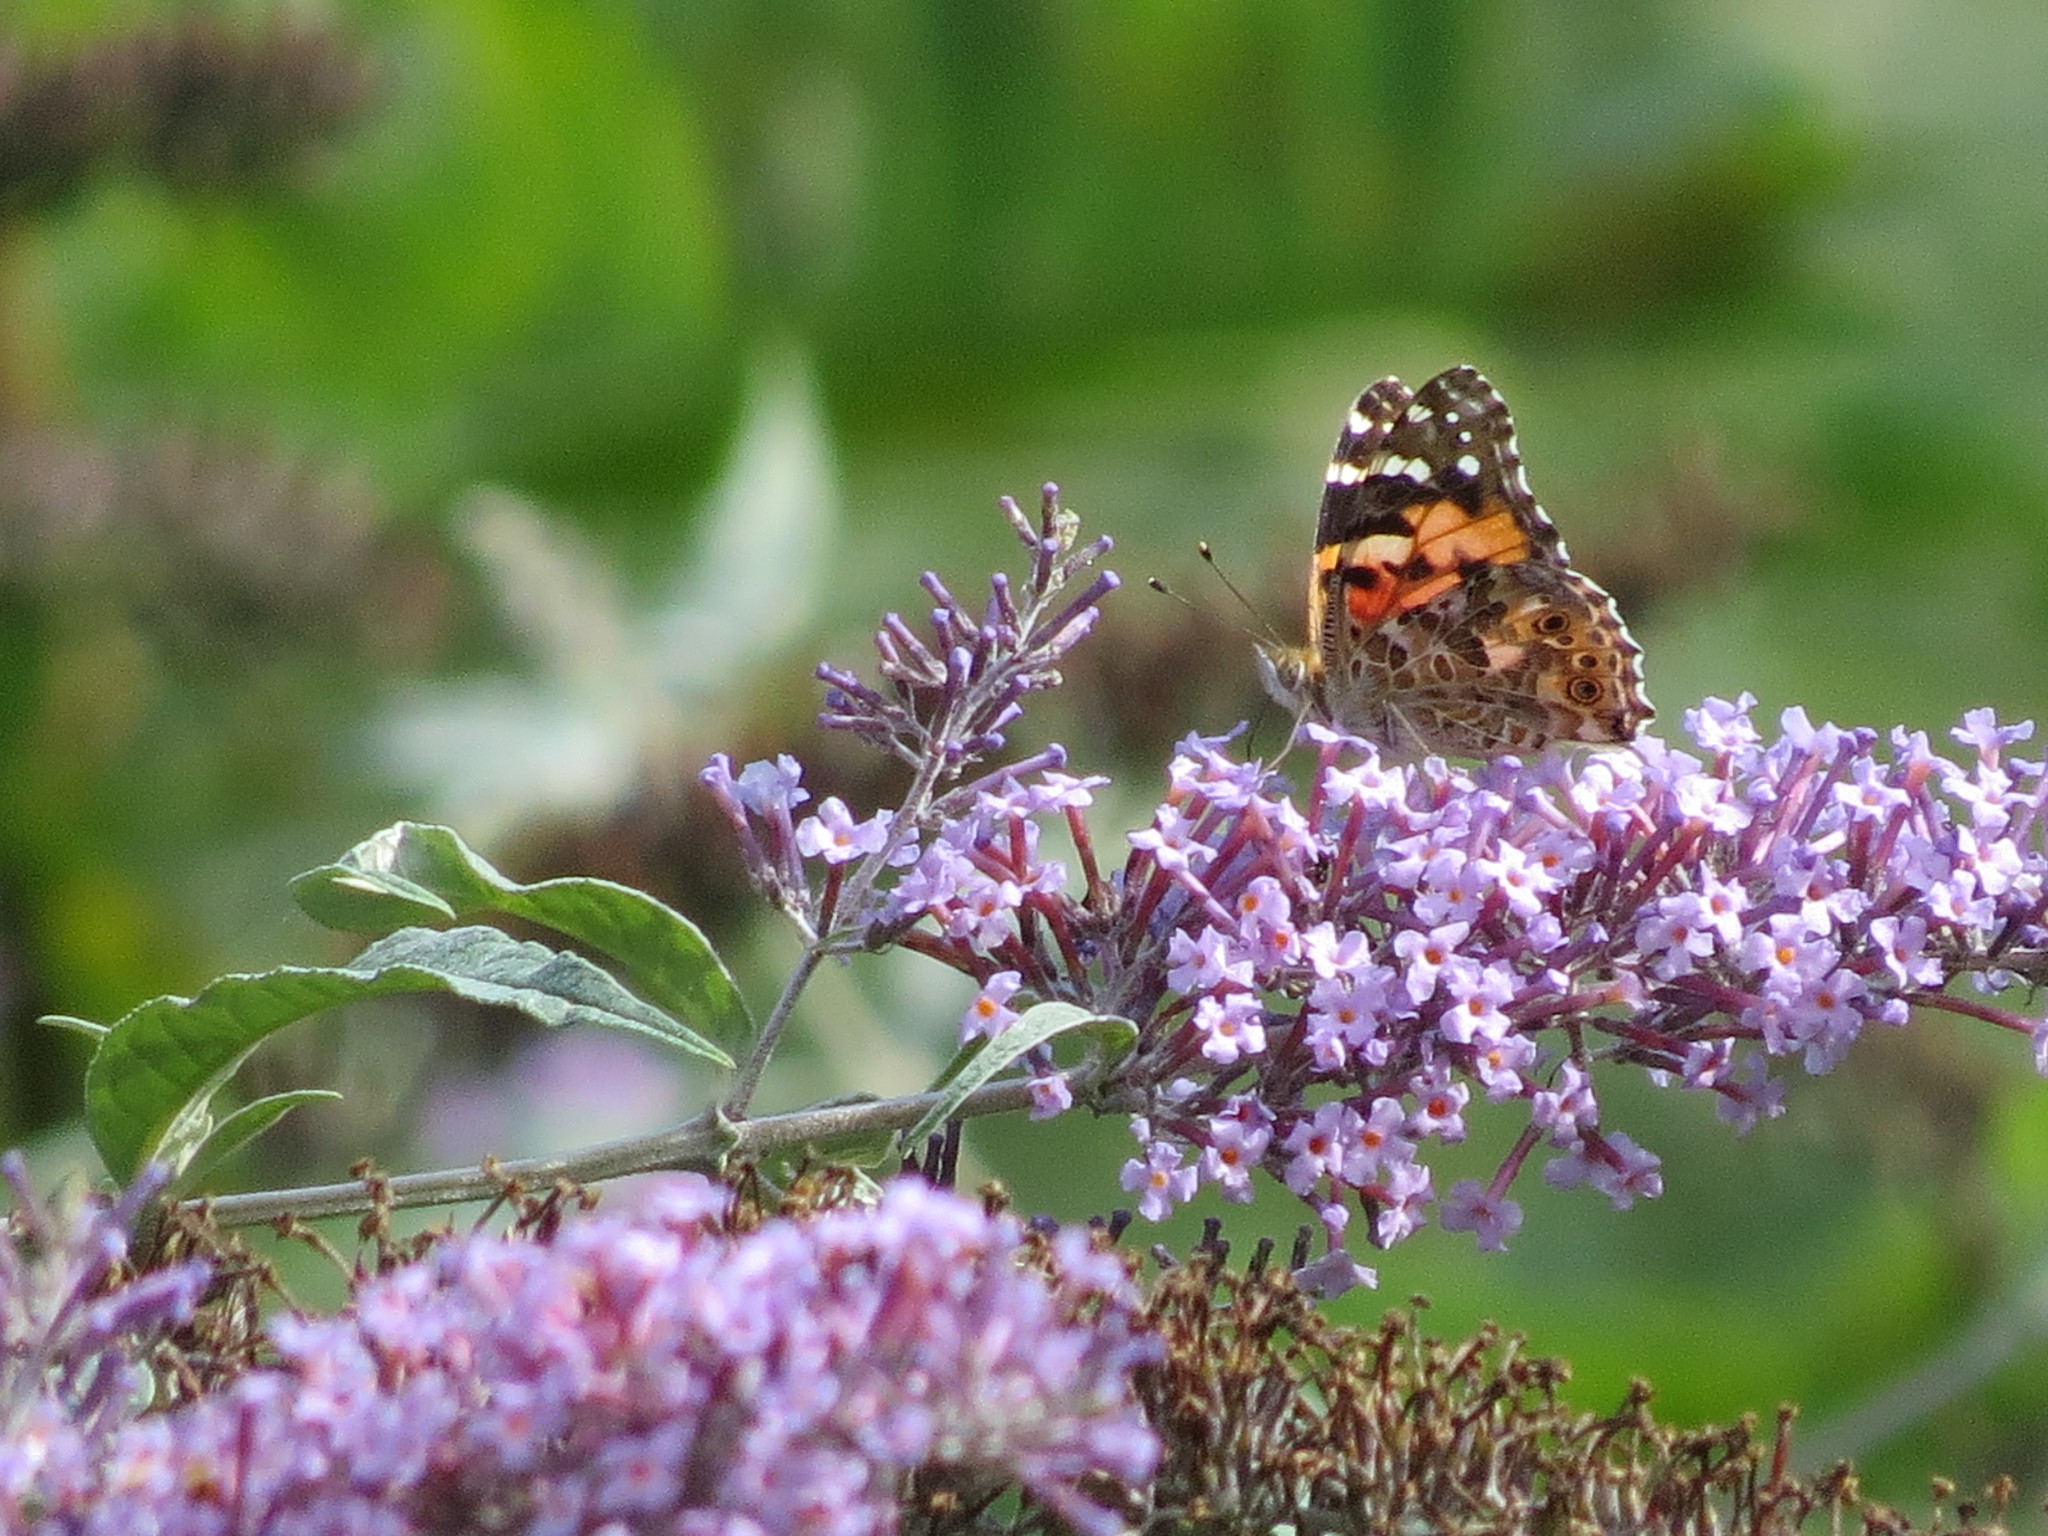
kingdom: Animalia
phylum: Arthropoda
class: Insecta
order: Lepidoptera
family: Nymphalidae
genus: Vanessa
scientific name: Vanessa cardui
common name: Painted lady
